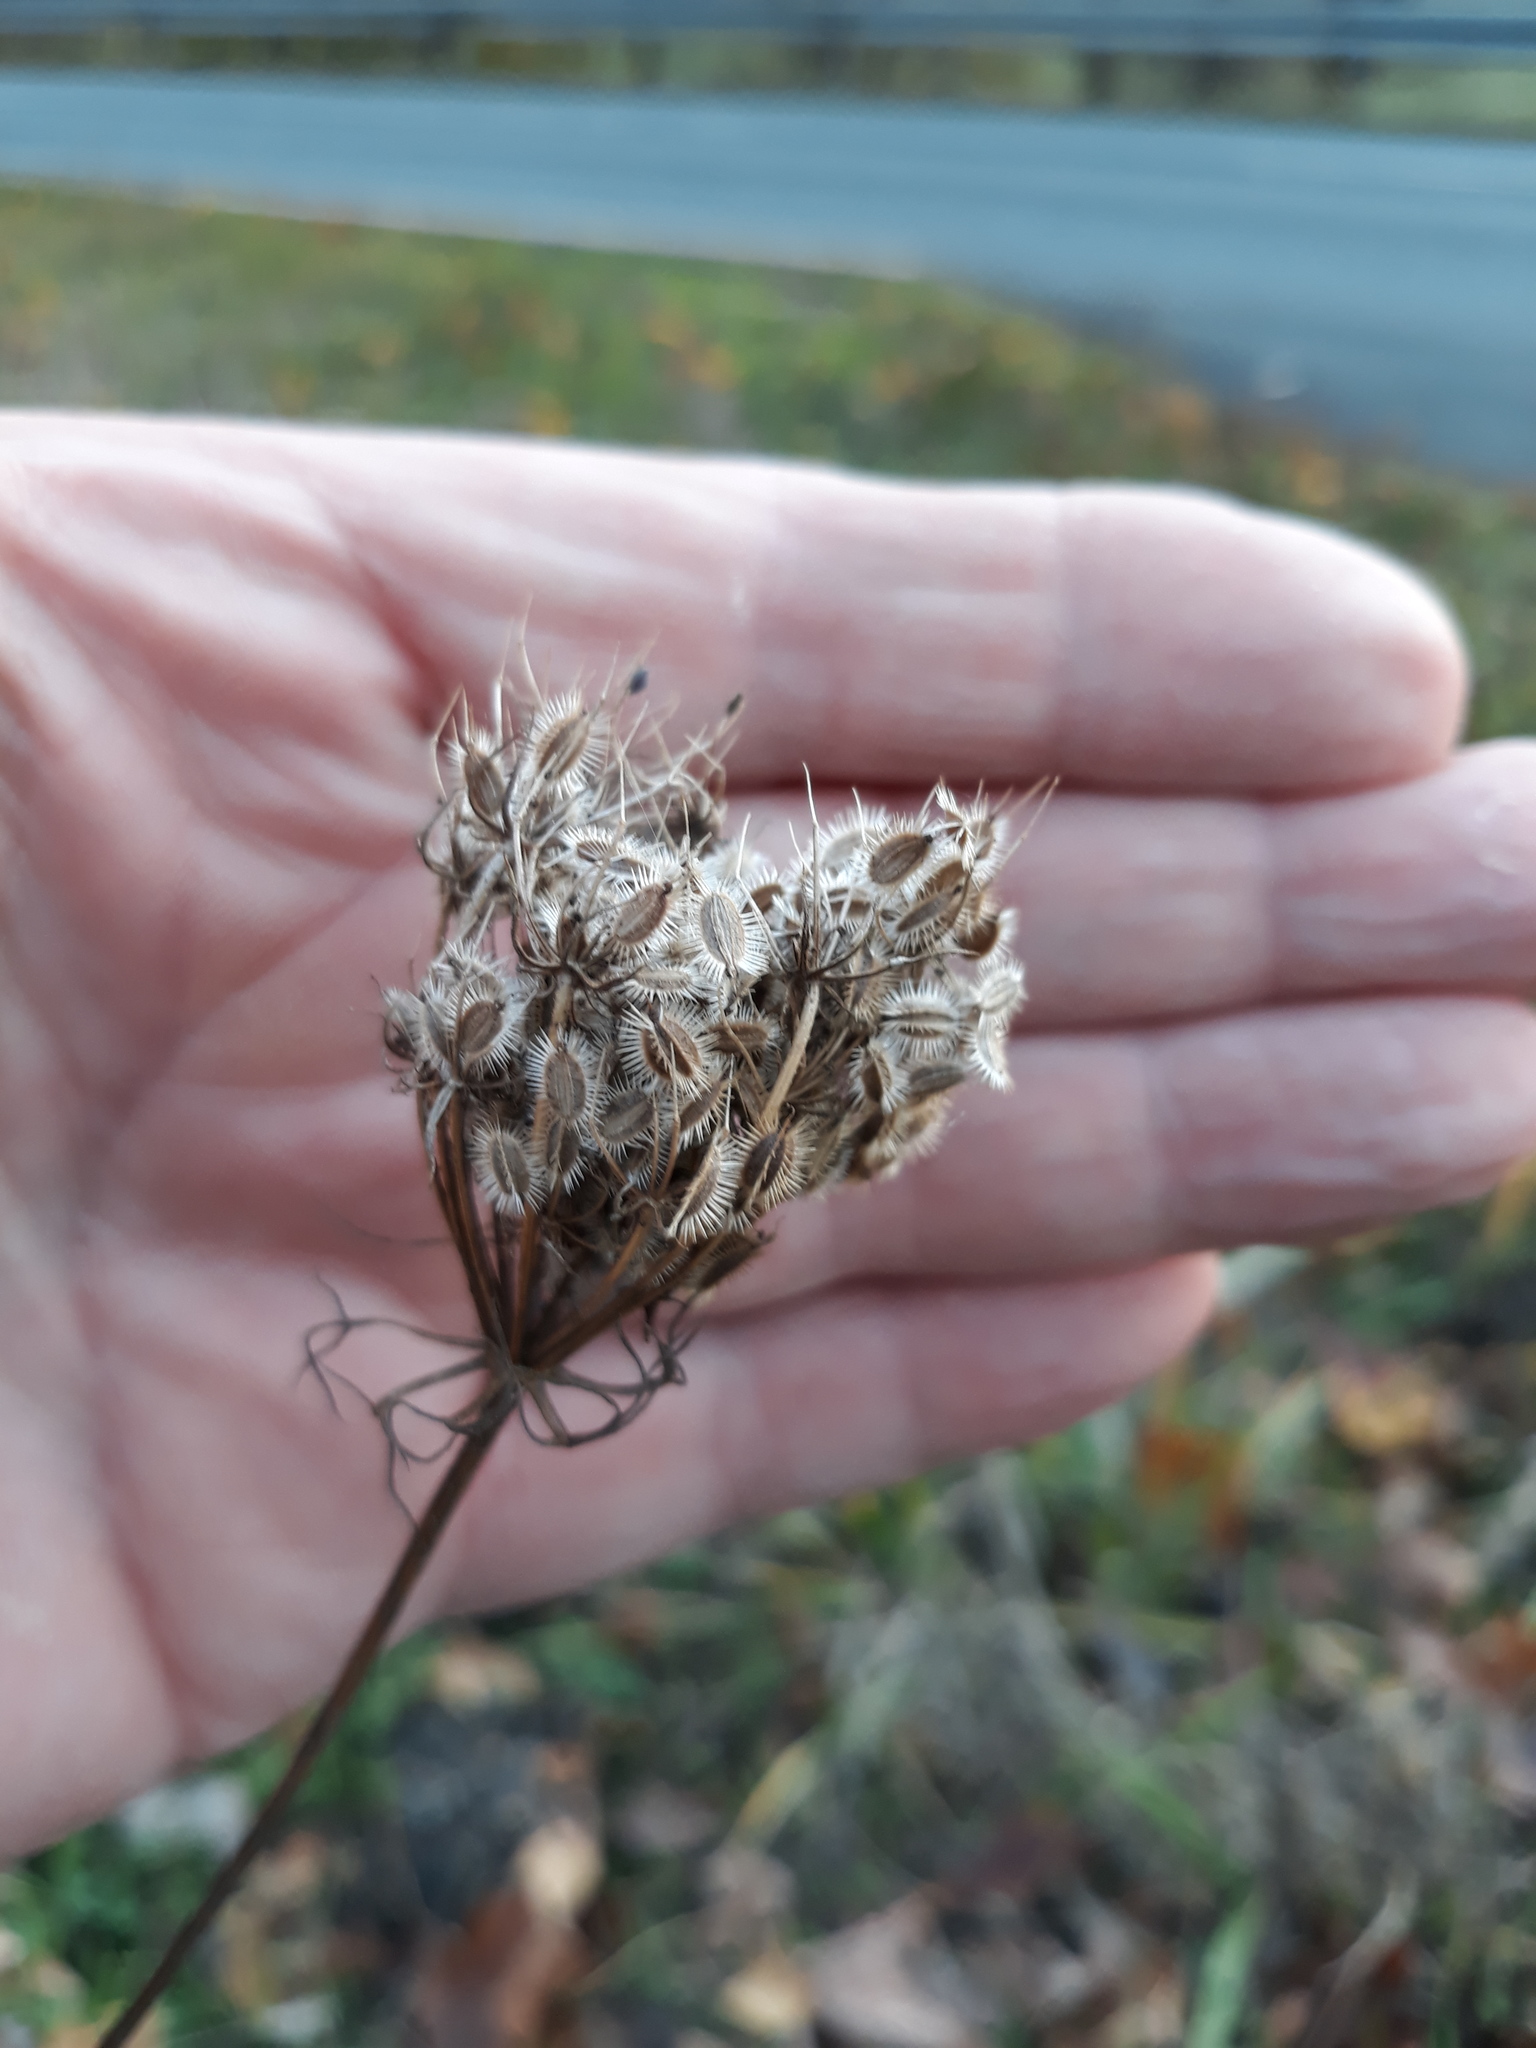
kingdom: Plantae
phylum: Tracheophyta
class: Magnoliopsida
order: Apiales
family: Apiaceae
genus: Daucus
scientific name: Daucus carota
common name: Wild carrot
